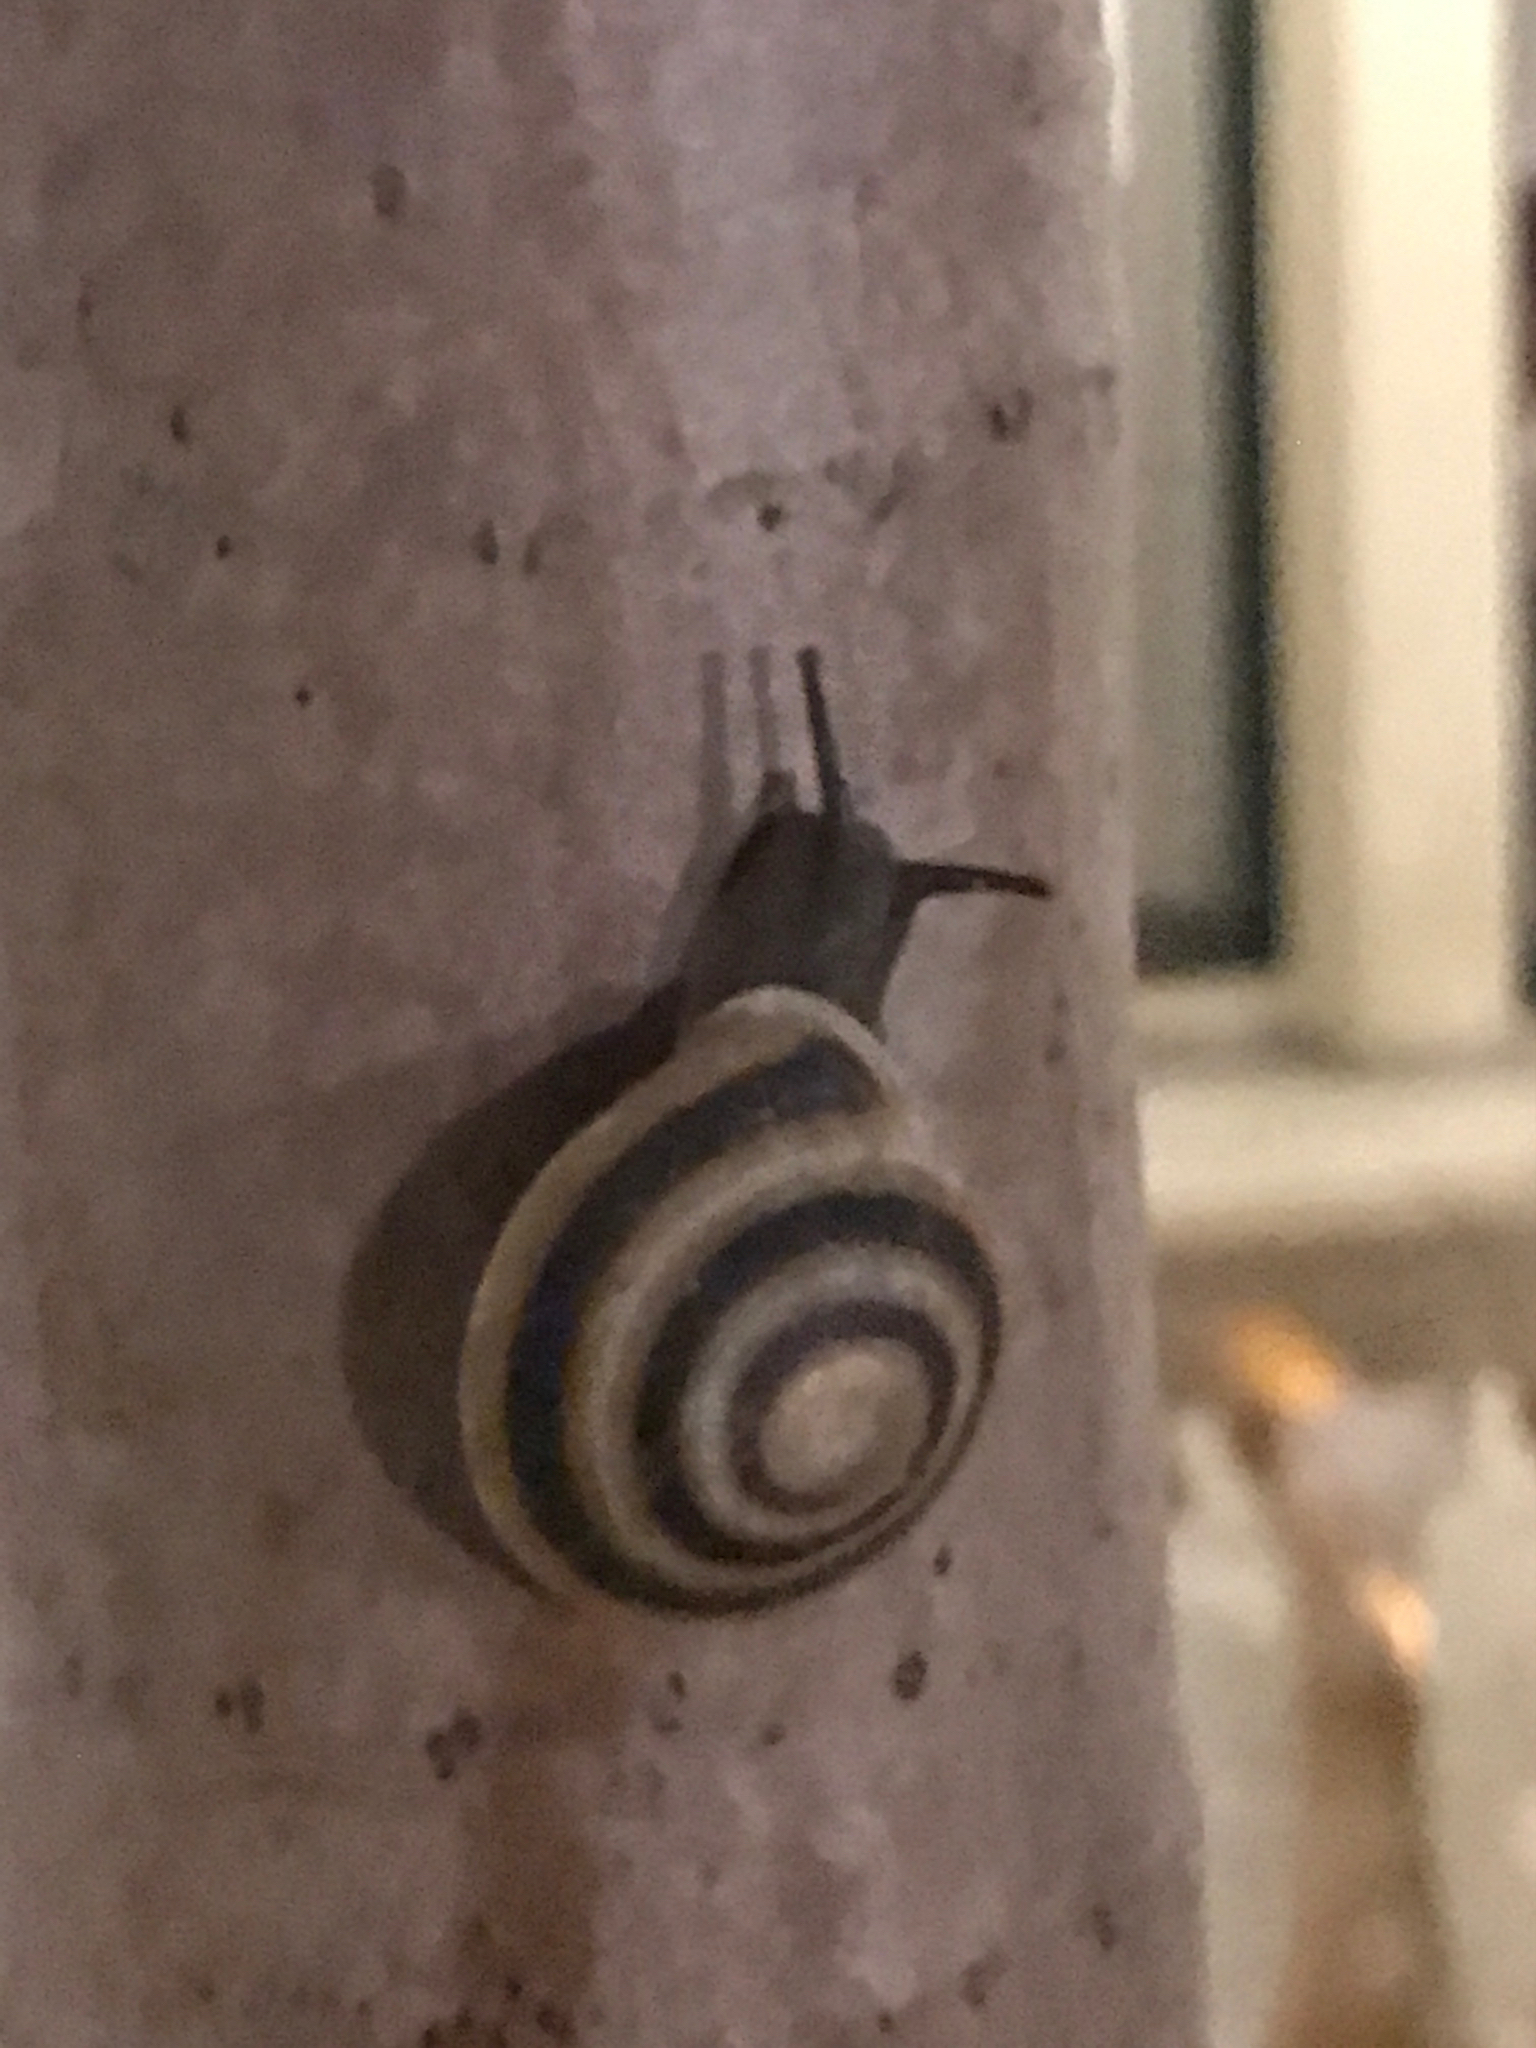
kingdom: Animalia
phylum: Mollusca
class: Gastropoda
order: Stylommatophora
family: Solaropsidae
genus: Caracolus
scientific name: Caracolus marginella
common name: Banded caracol
